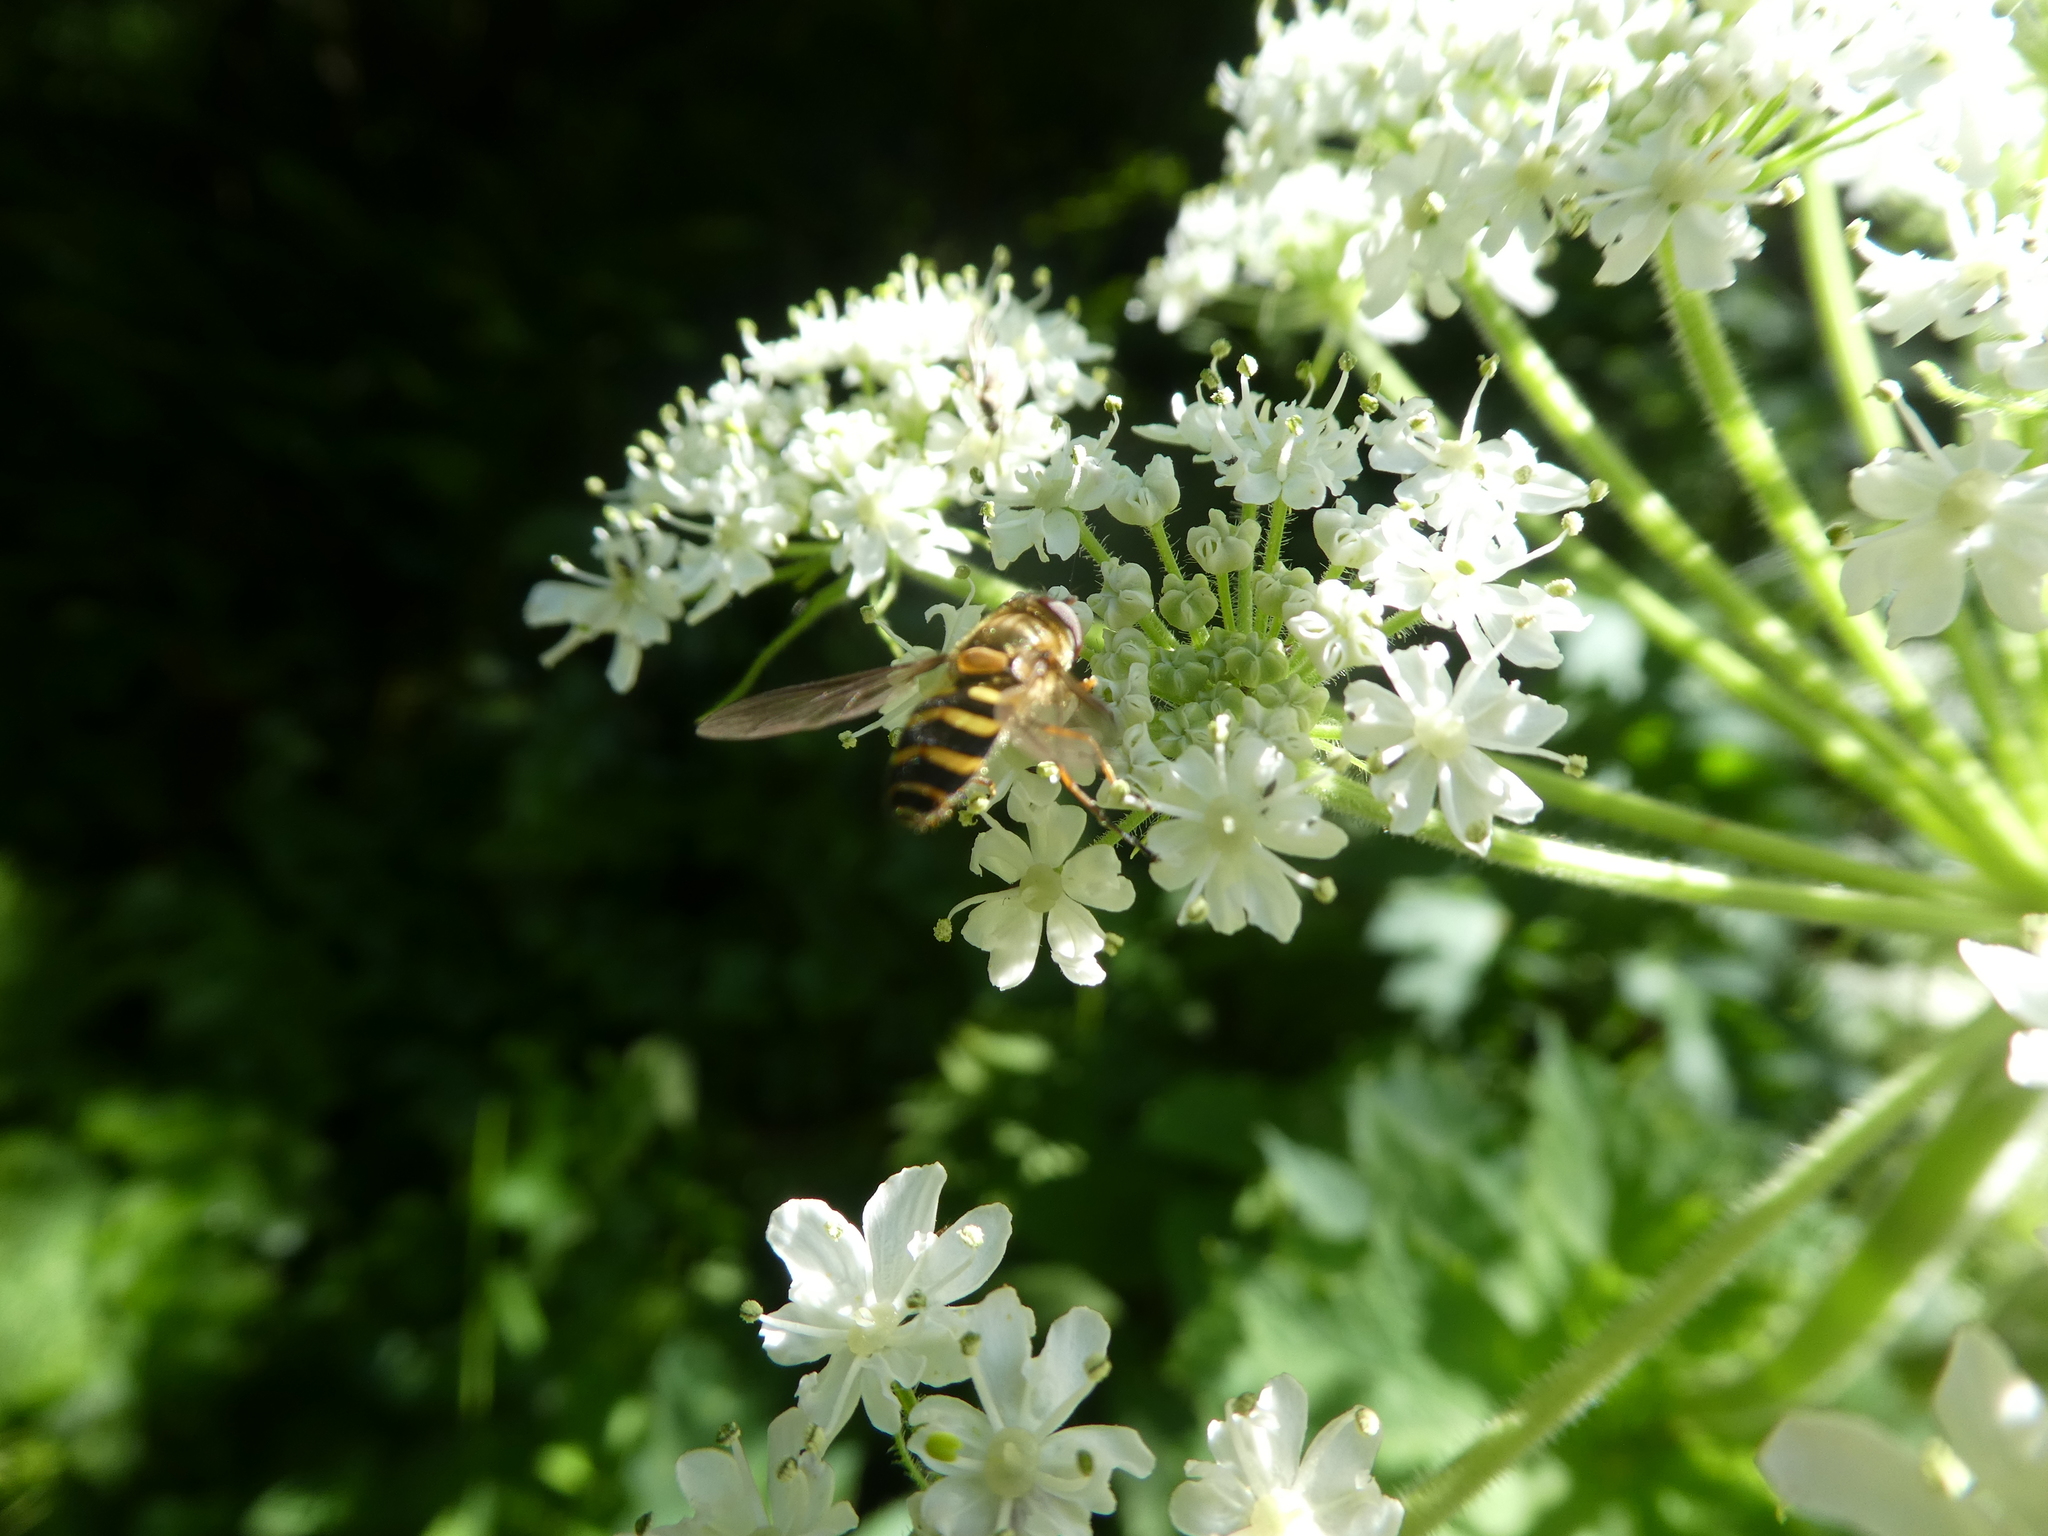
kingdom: Animalia
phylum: Arthropoda
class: Insecta
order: Diptera
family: Syrphidae
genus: Syrphus
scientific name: Syrphus
